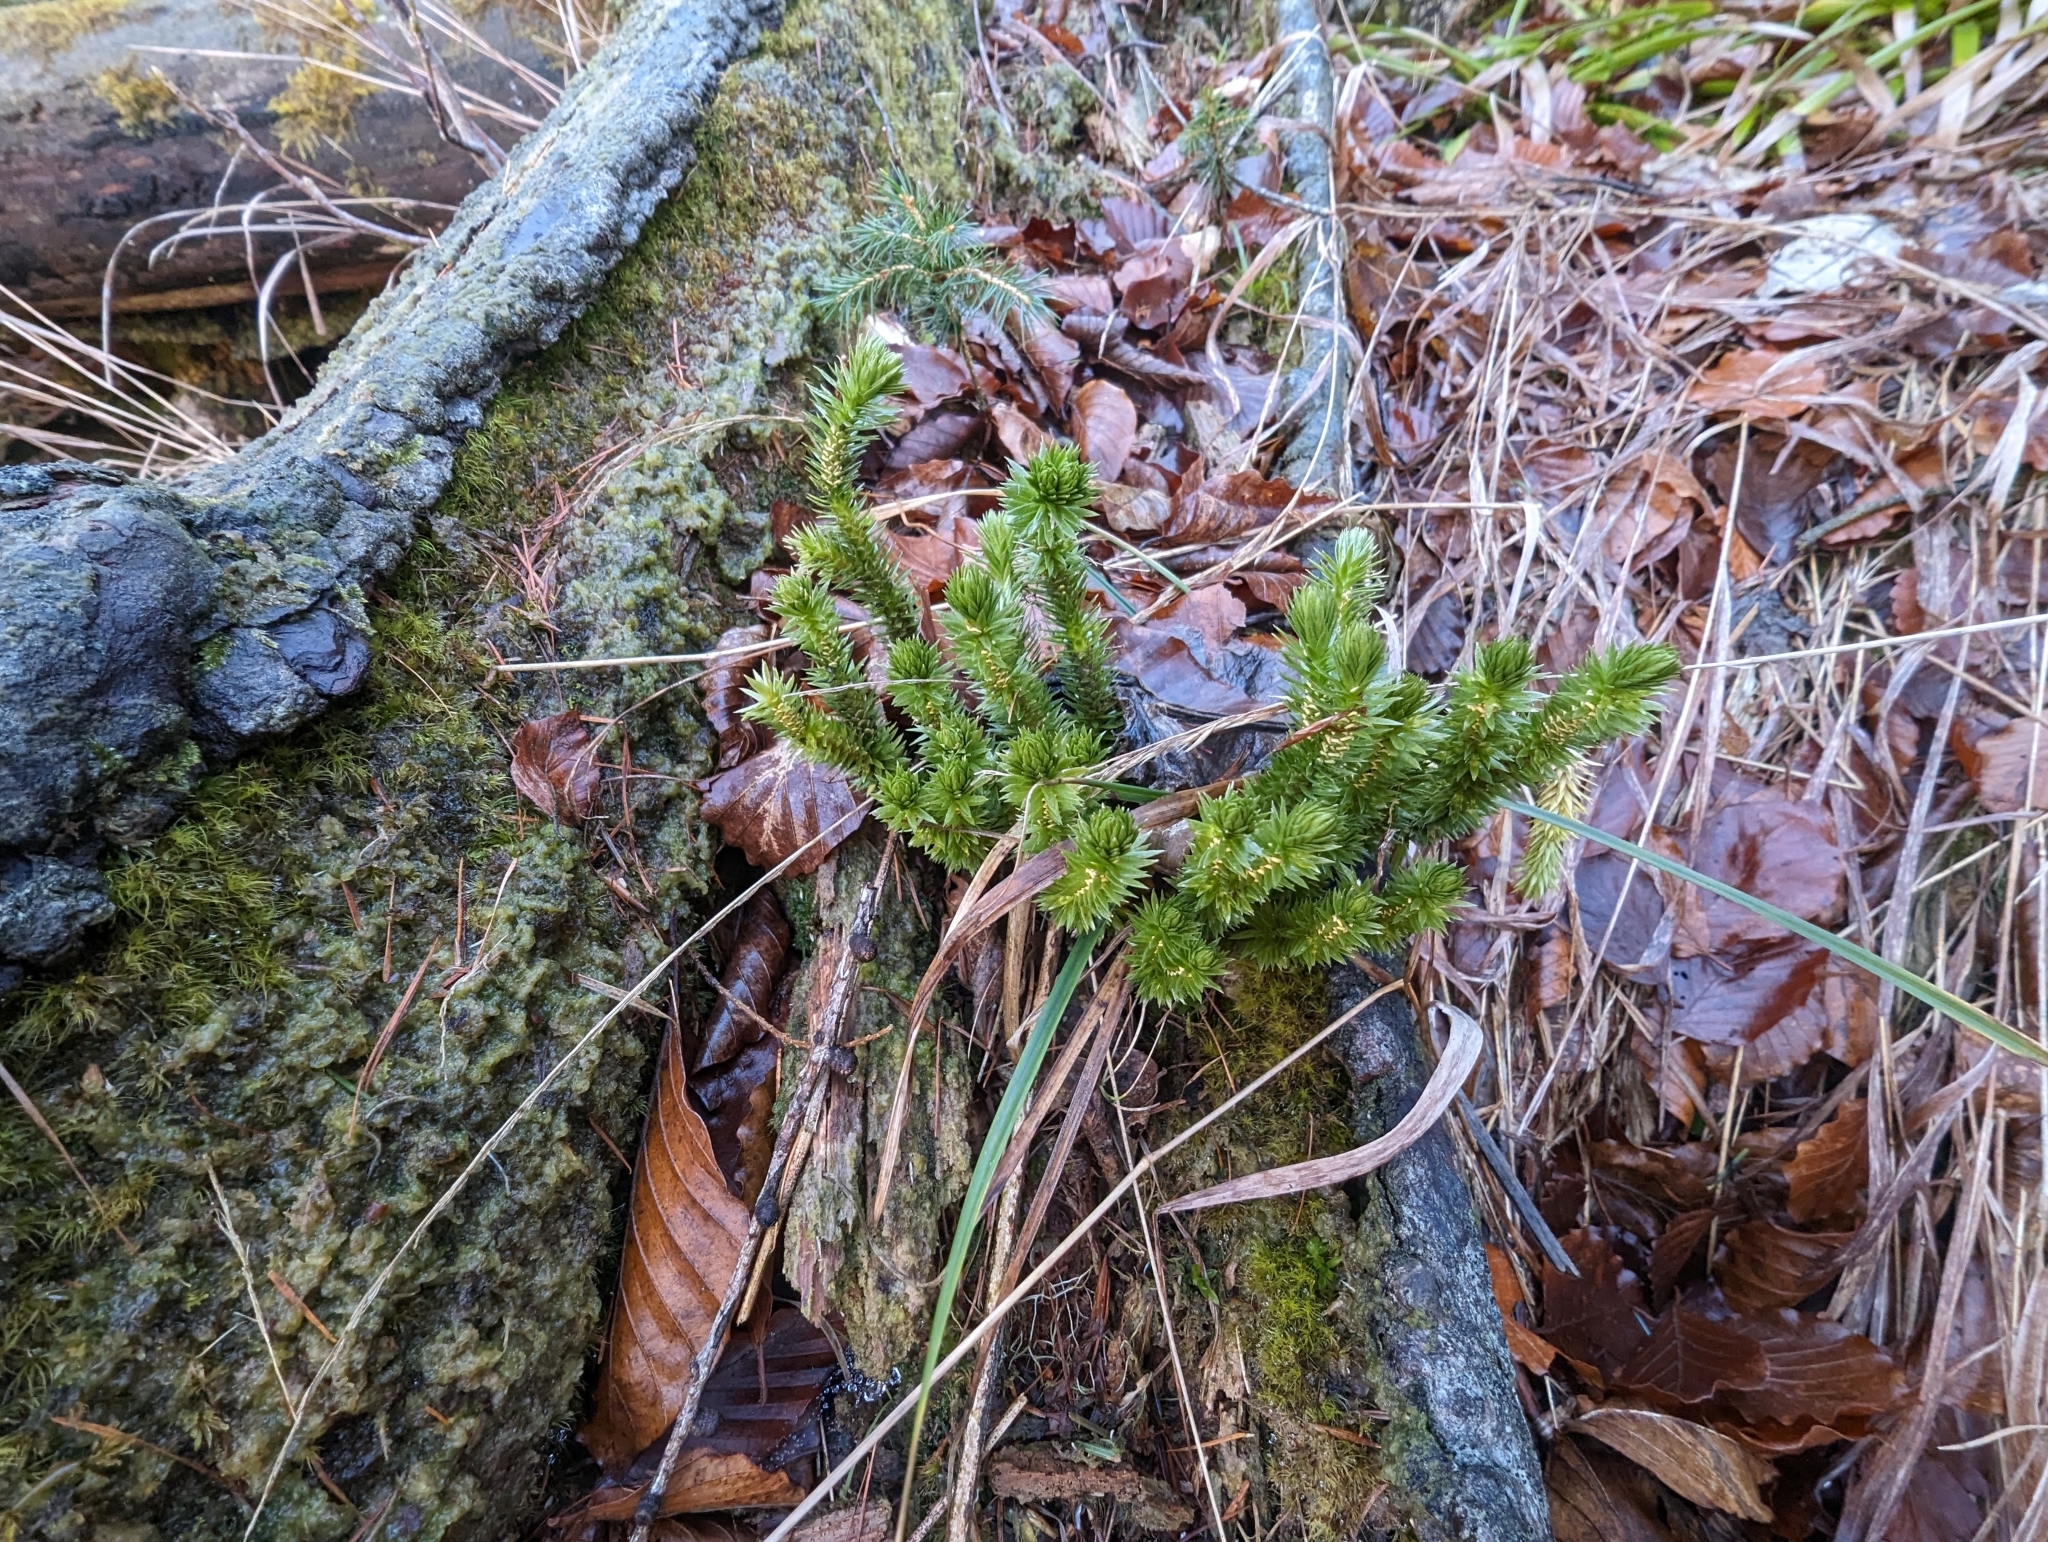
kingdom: Plantae
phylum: Tracheophyta
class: Lycopodiopsida
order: Lycopodiales
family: Lycopodiaceae
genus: Huperzia
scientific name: Huperzia selago
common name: Northern firmoss
